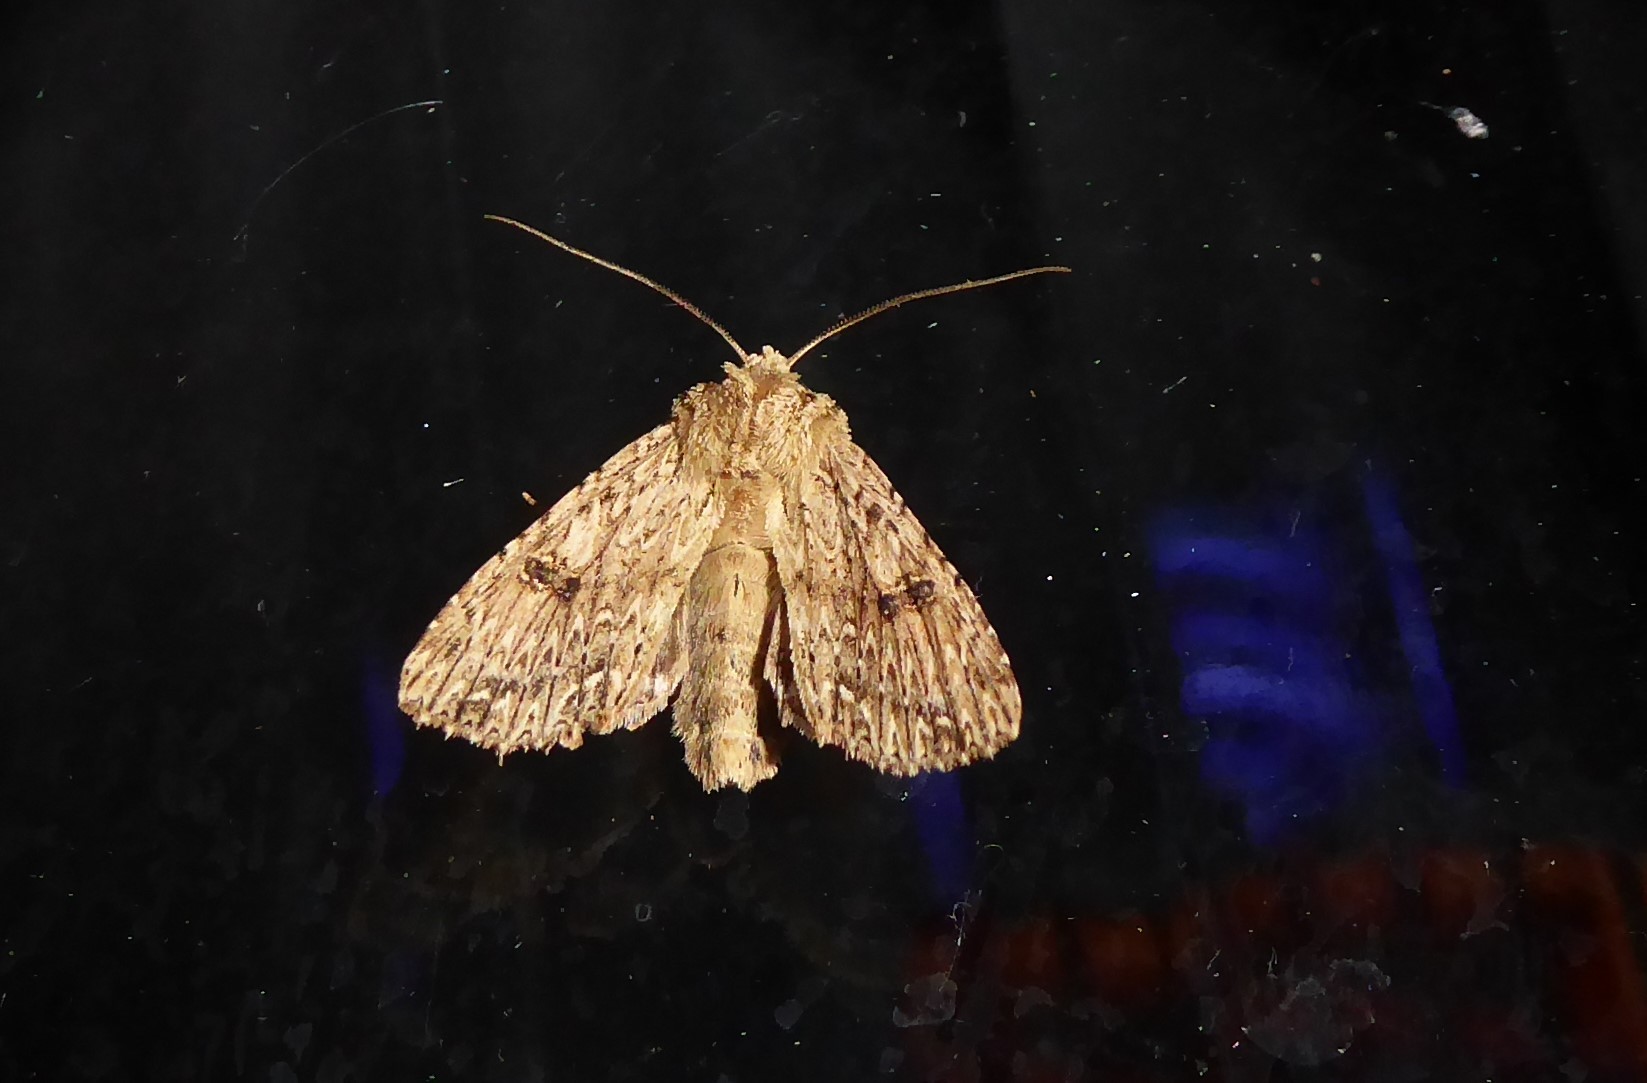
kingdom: Animalia
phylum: Arthropoda
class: Insecta
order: Lepidoptera
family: Noctuidae
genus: Meterana
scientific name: Meterana pansicolor
